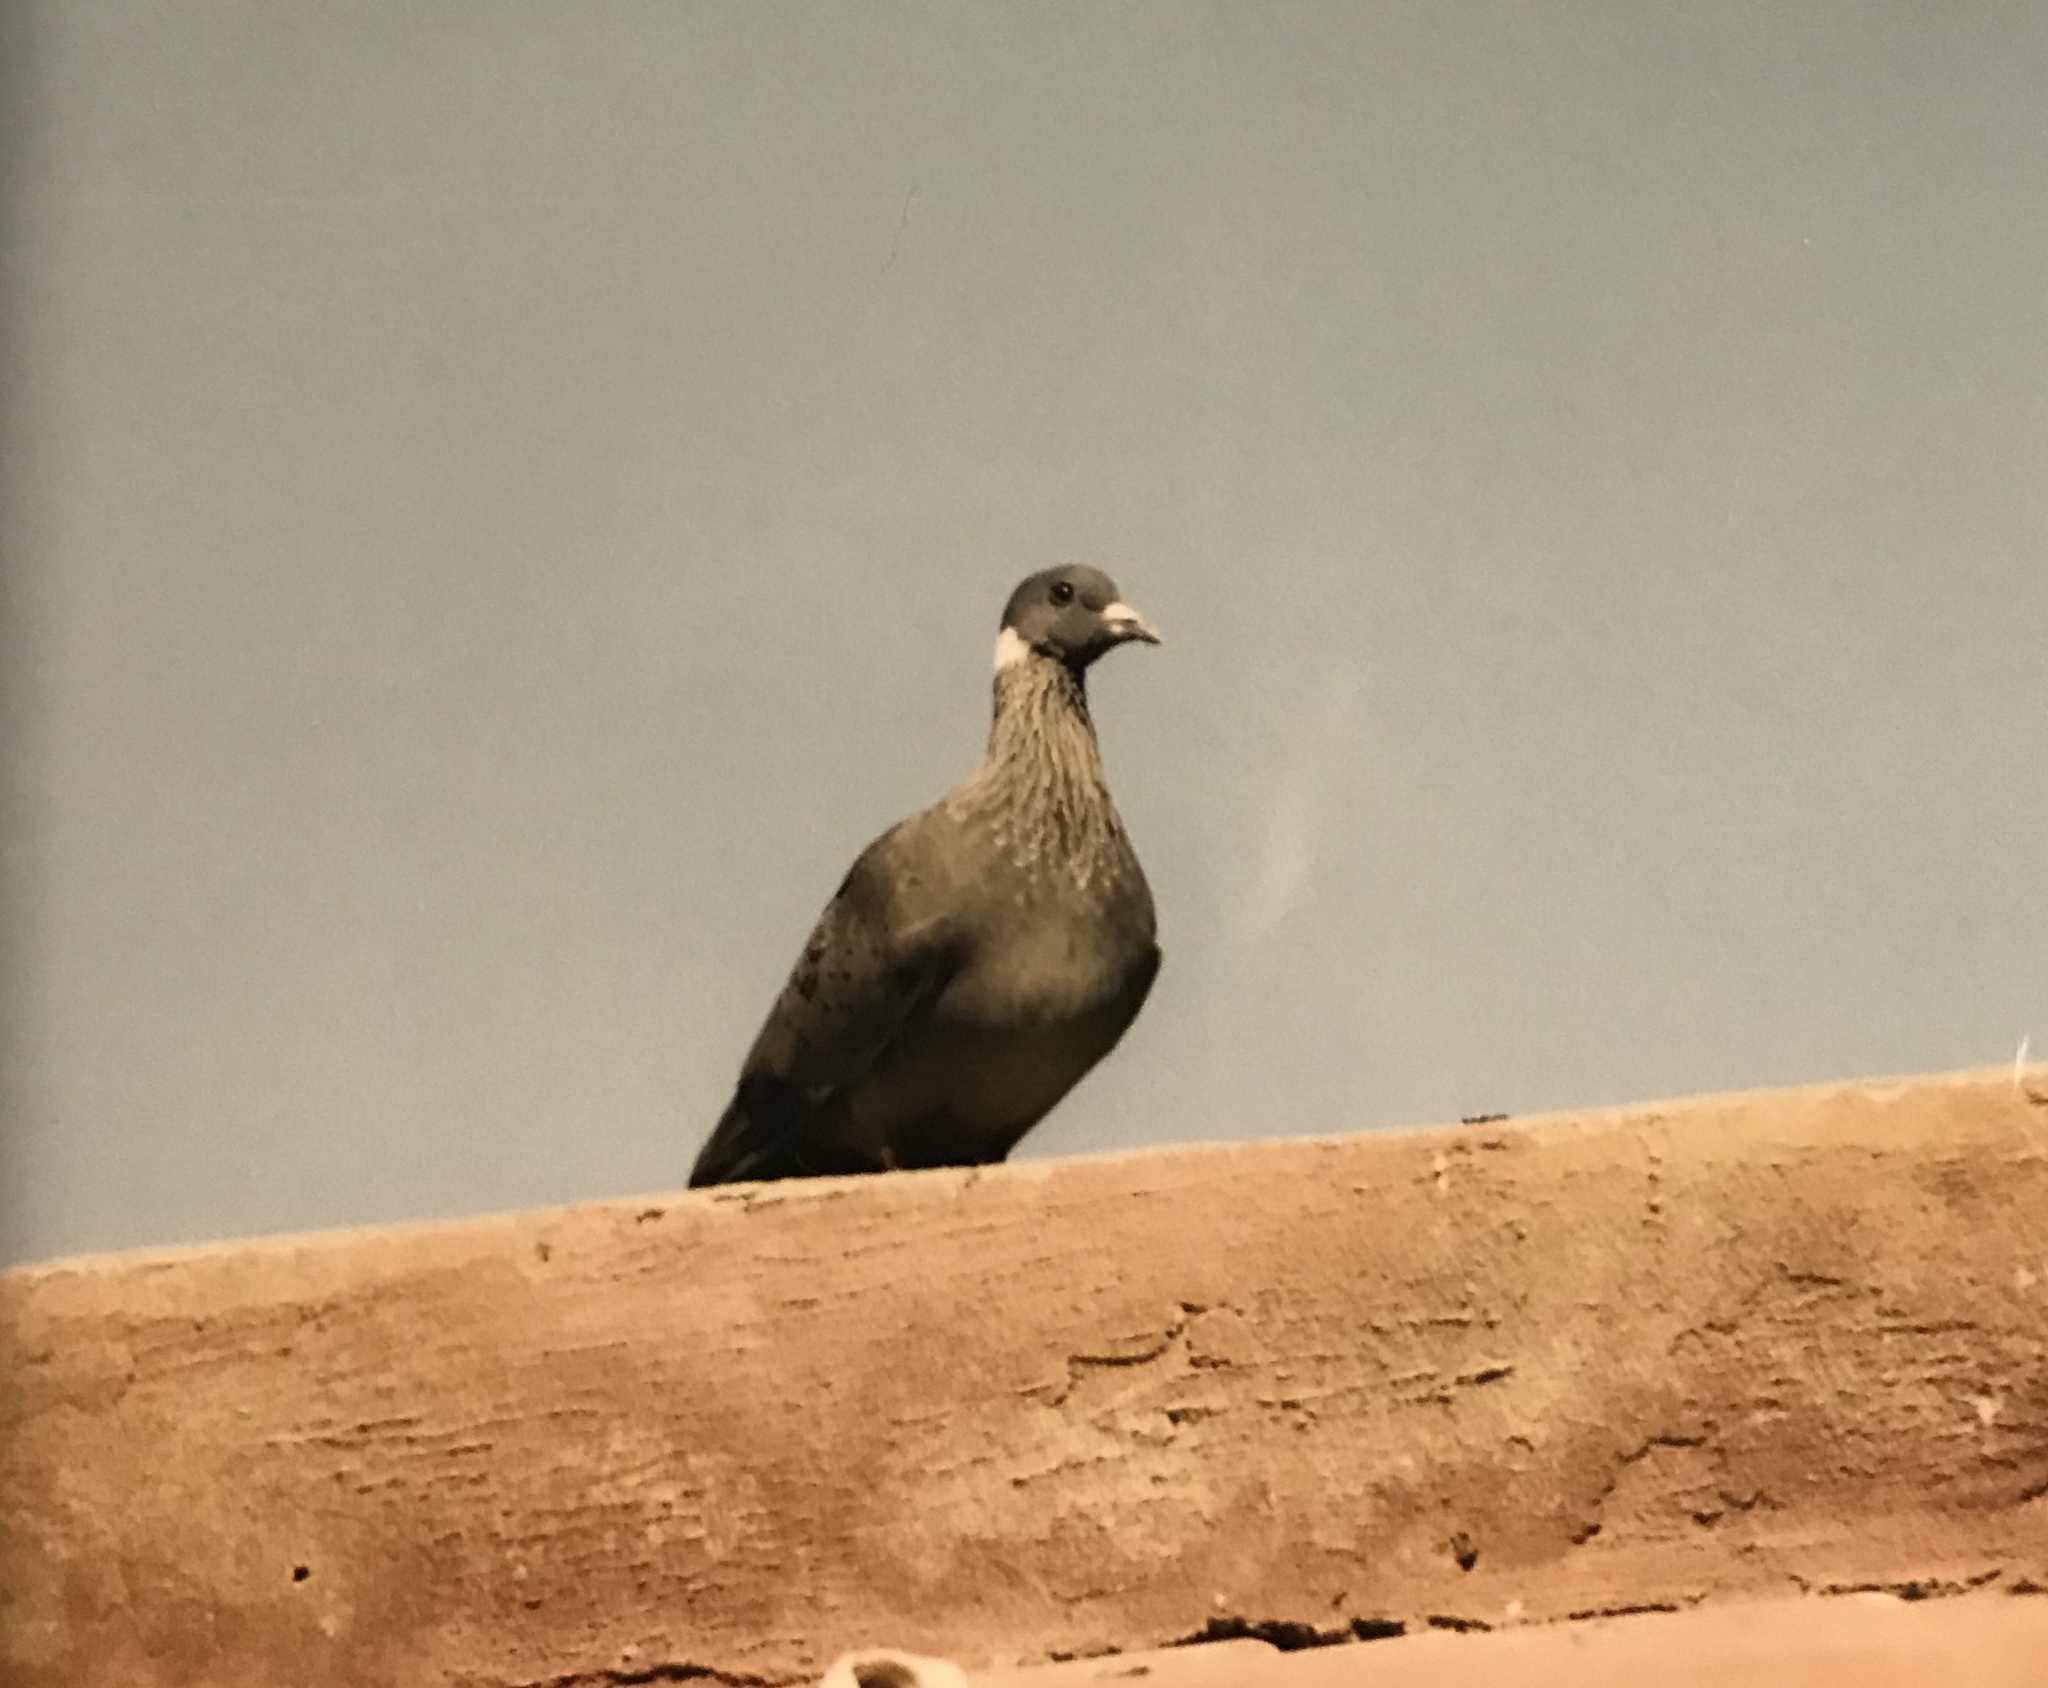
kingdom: Animalia
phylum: Chordata
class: Aves
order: Columbiformes
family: Columbidae
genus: Columba
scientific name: Columba albitorques
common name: White-collared pigeon
